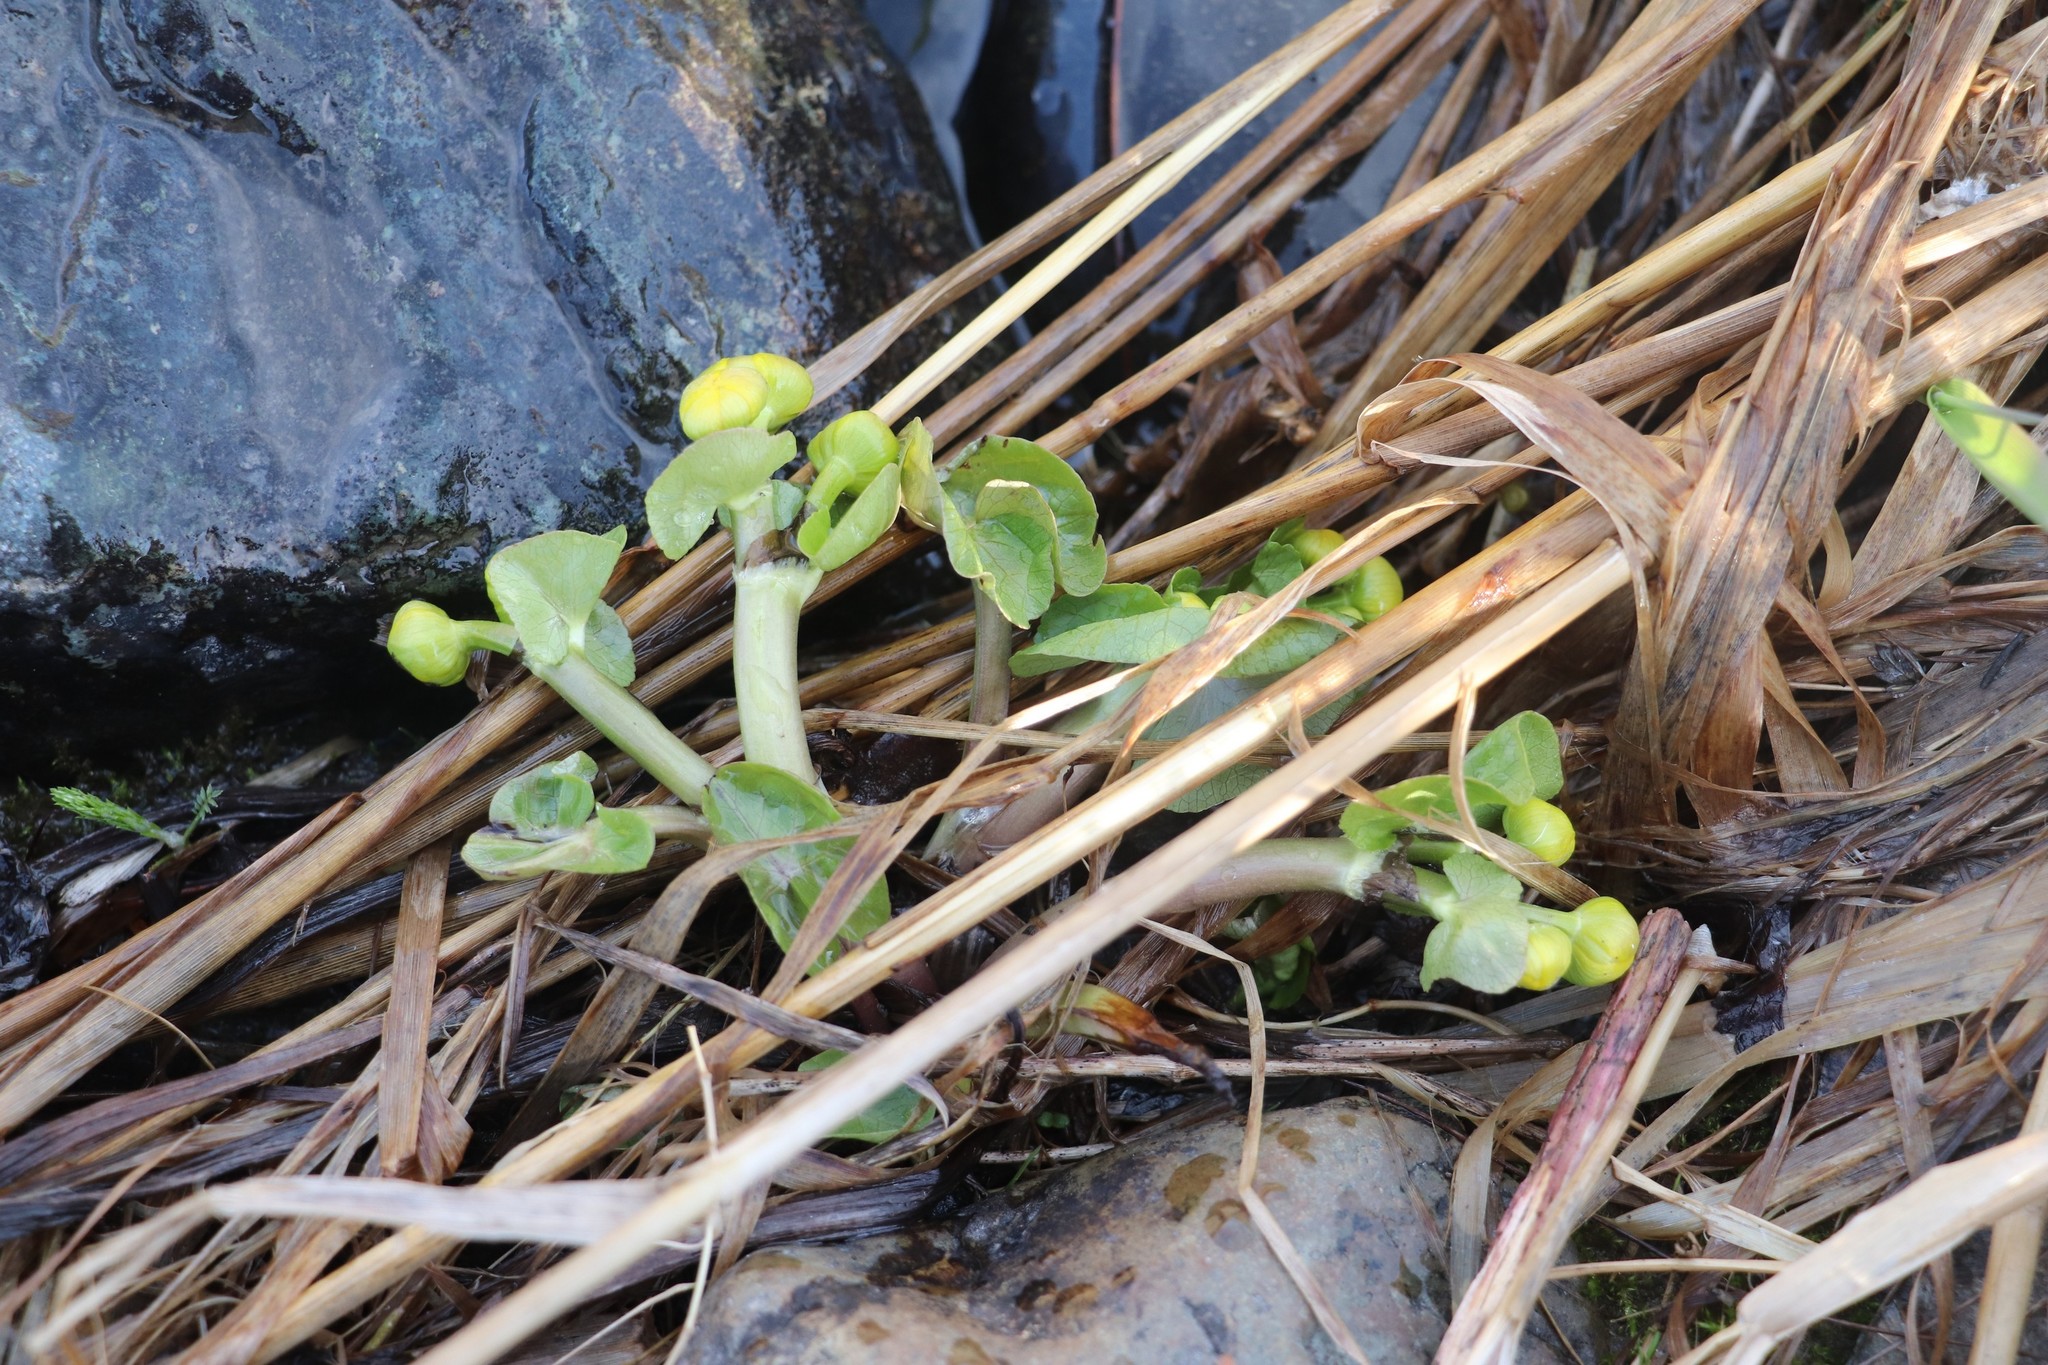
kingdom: Plantae
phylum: Tracheophyta
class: Magnoliopsida
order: Ranunculales
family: Ranunculaceae
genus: Caltha
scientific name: Caltha palustris
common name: Marsh marigold
